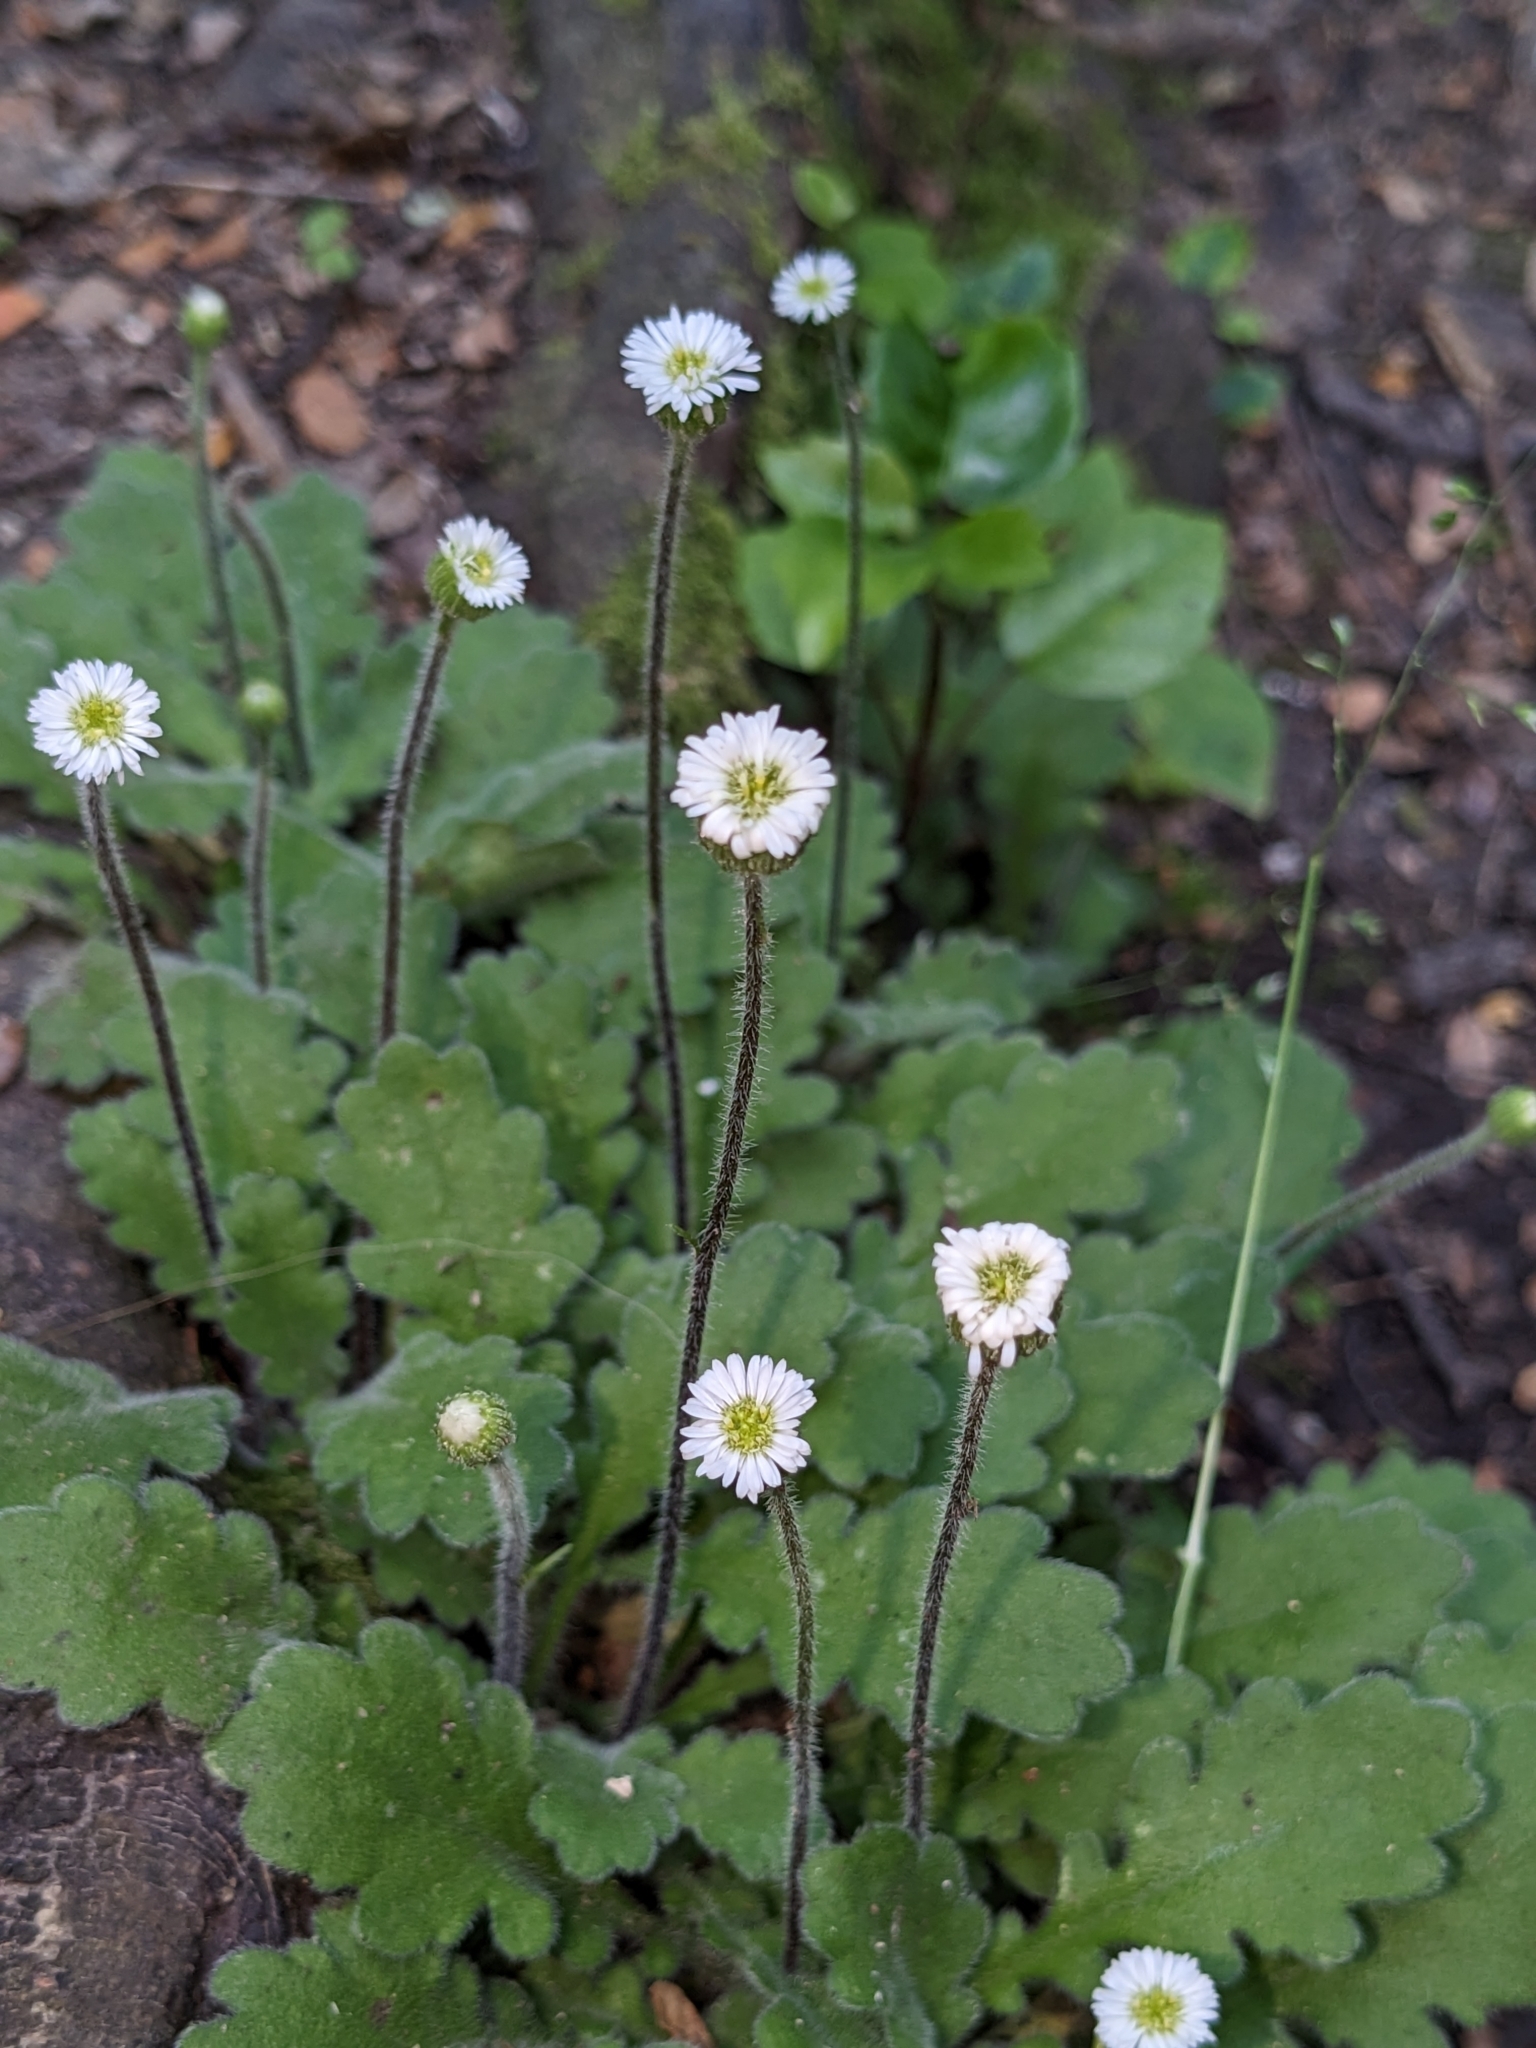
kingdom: Plantae
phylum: Tracheophyta
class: Magnoliopsida
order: Asterales
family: Asteraceae
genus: Lagenophora
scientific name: Lagenophora pinnatifida
